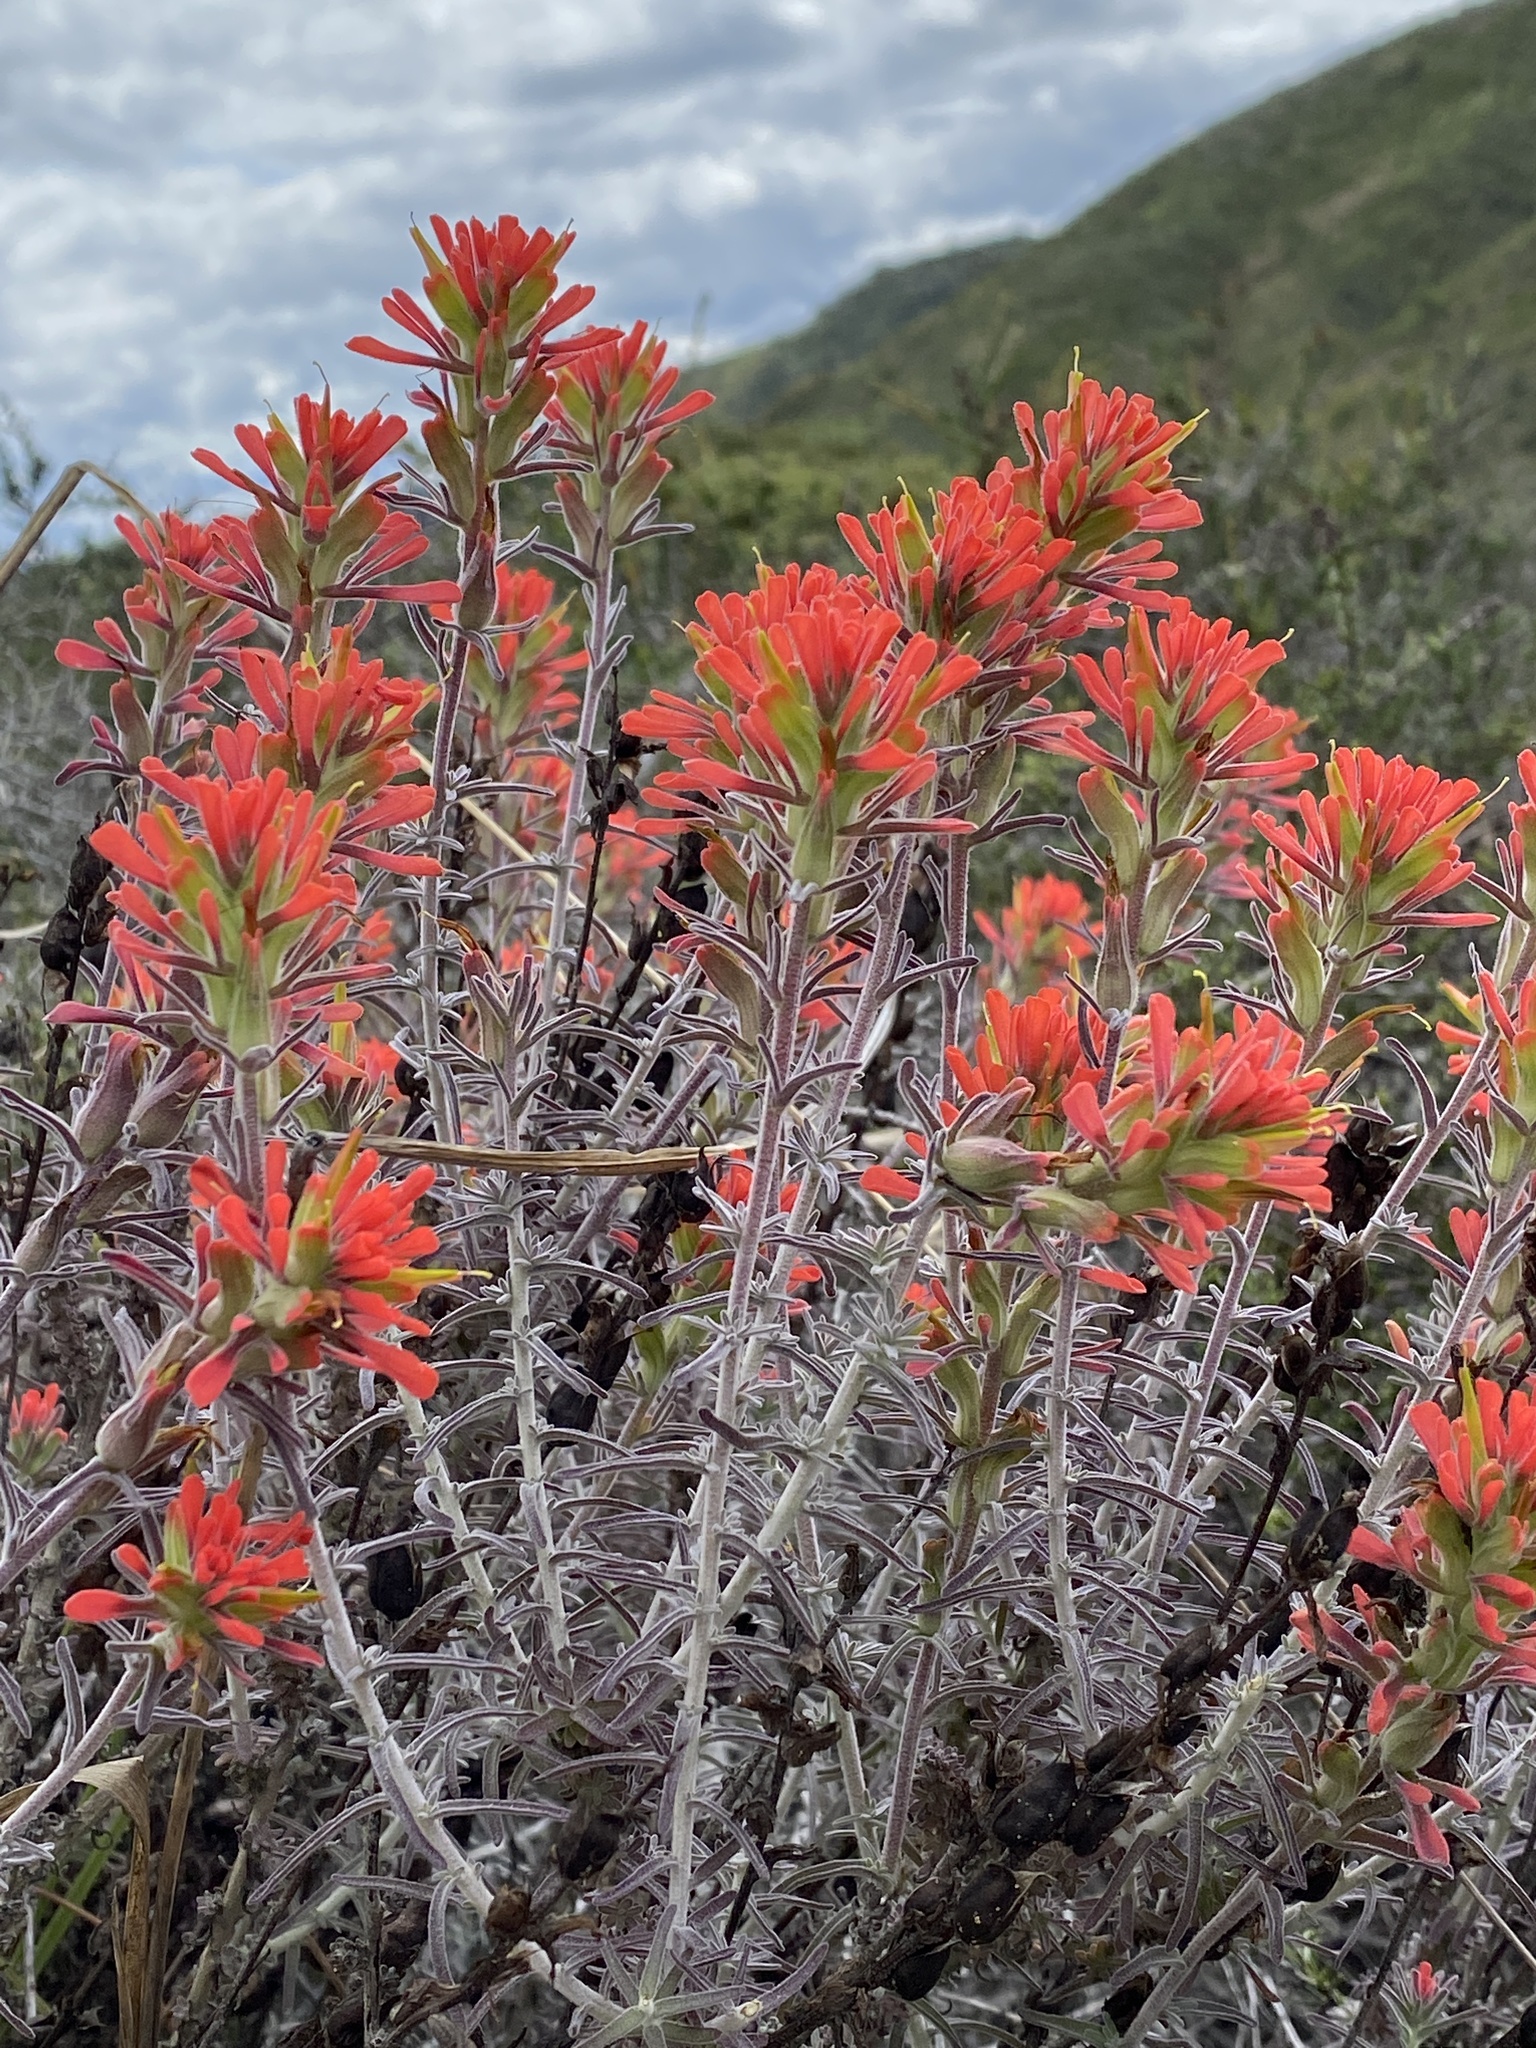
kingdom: Plantae
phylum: Tracheophyta
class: Magnoliopsida
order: Lamiales
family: Orobanchaceae
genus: Castilleja
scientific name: Castilleja foliolosa
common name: Woolly indian paintbrush
